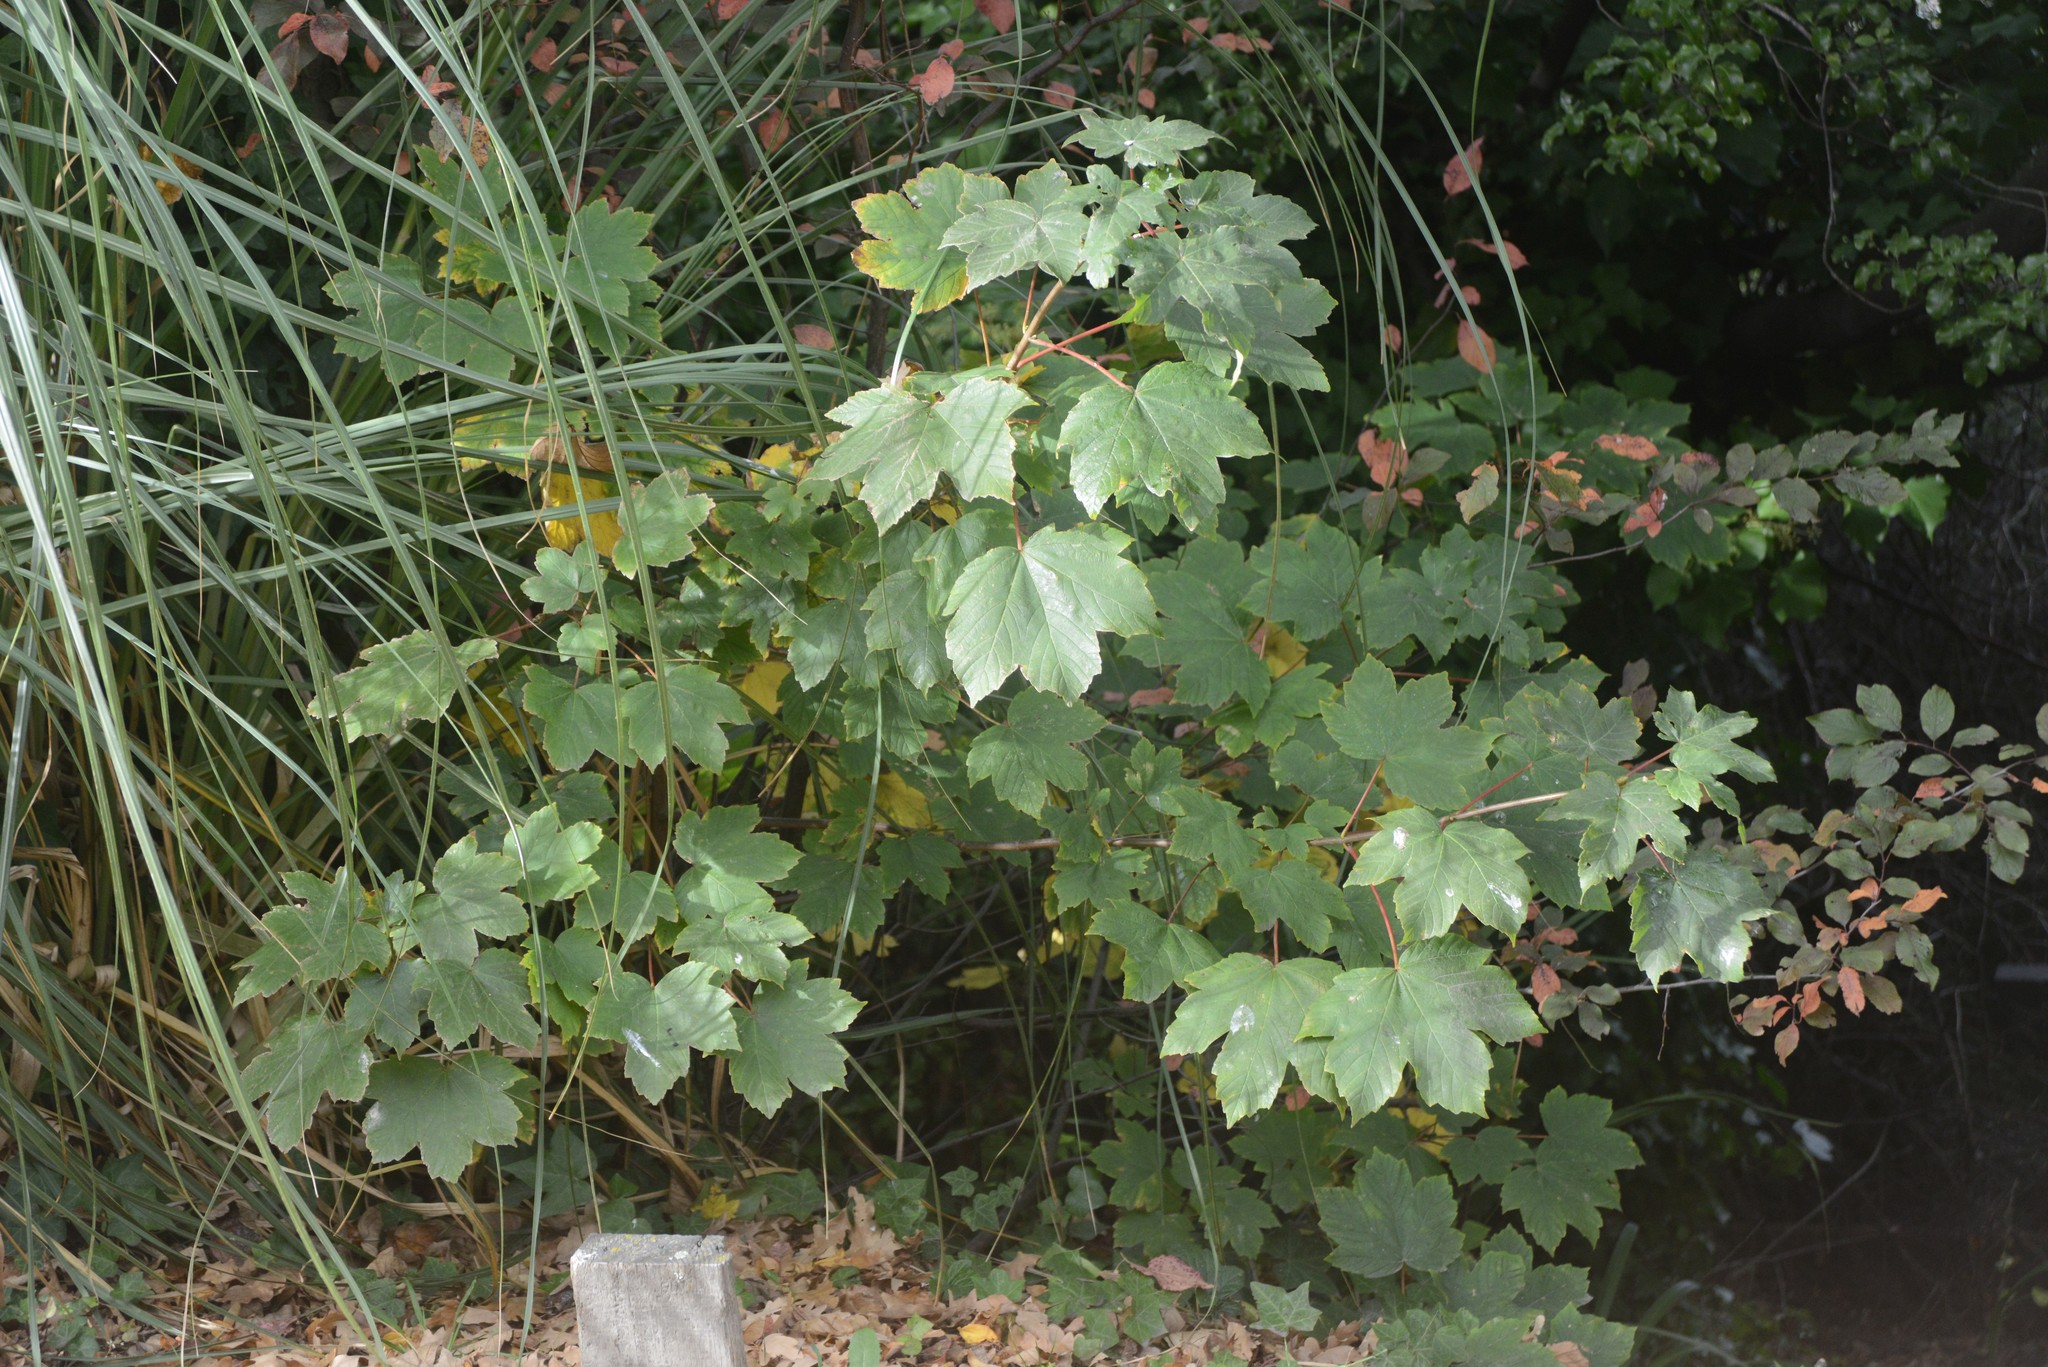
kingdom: Plantae
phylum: Tracheophyta
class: Magnoliopsida
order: Sapindales
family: Sapindaceae
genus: Acer
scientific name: Acer pseudoplatanus
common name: Sycamore
